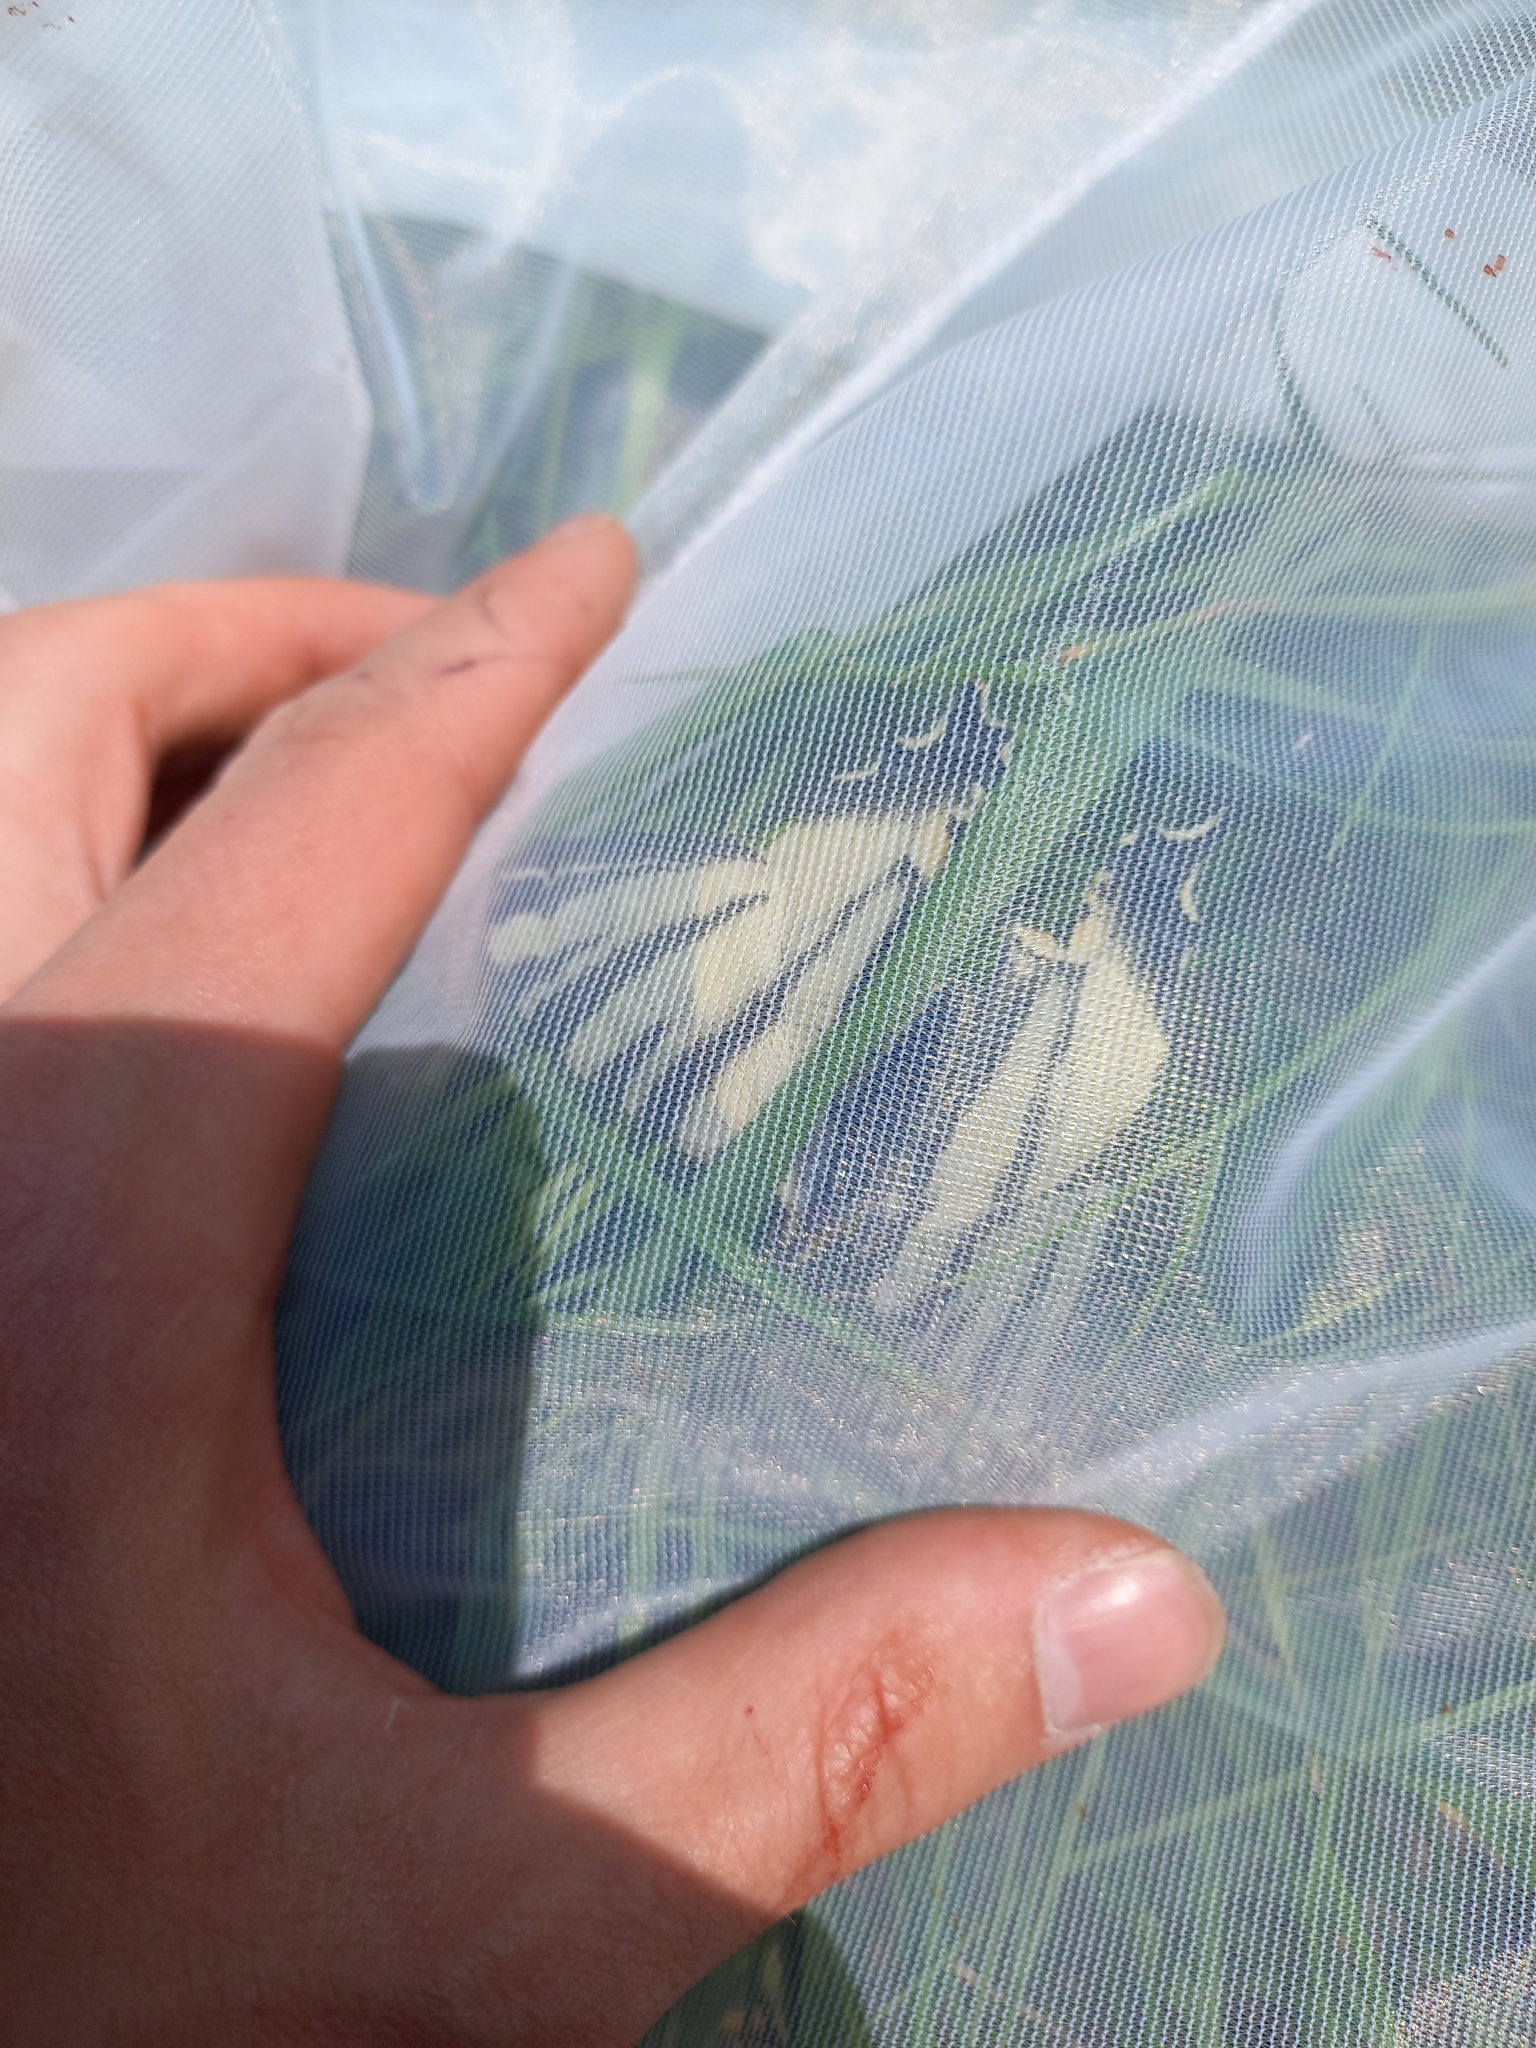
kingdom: Animalia
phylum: Arthropoda
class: Insecta
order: Lepidoptera
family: Papilionidae
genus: Iphiclides
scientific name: Iphiclides podalirius
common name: Scarce swallowtail
